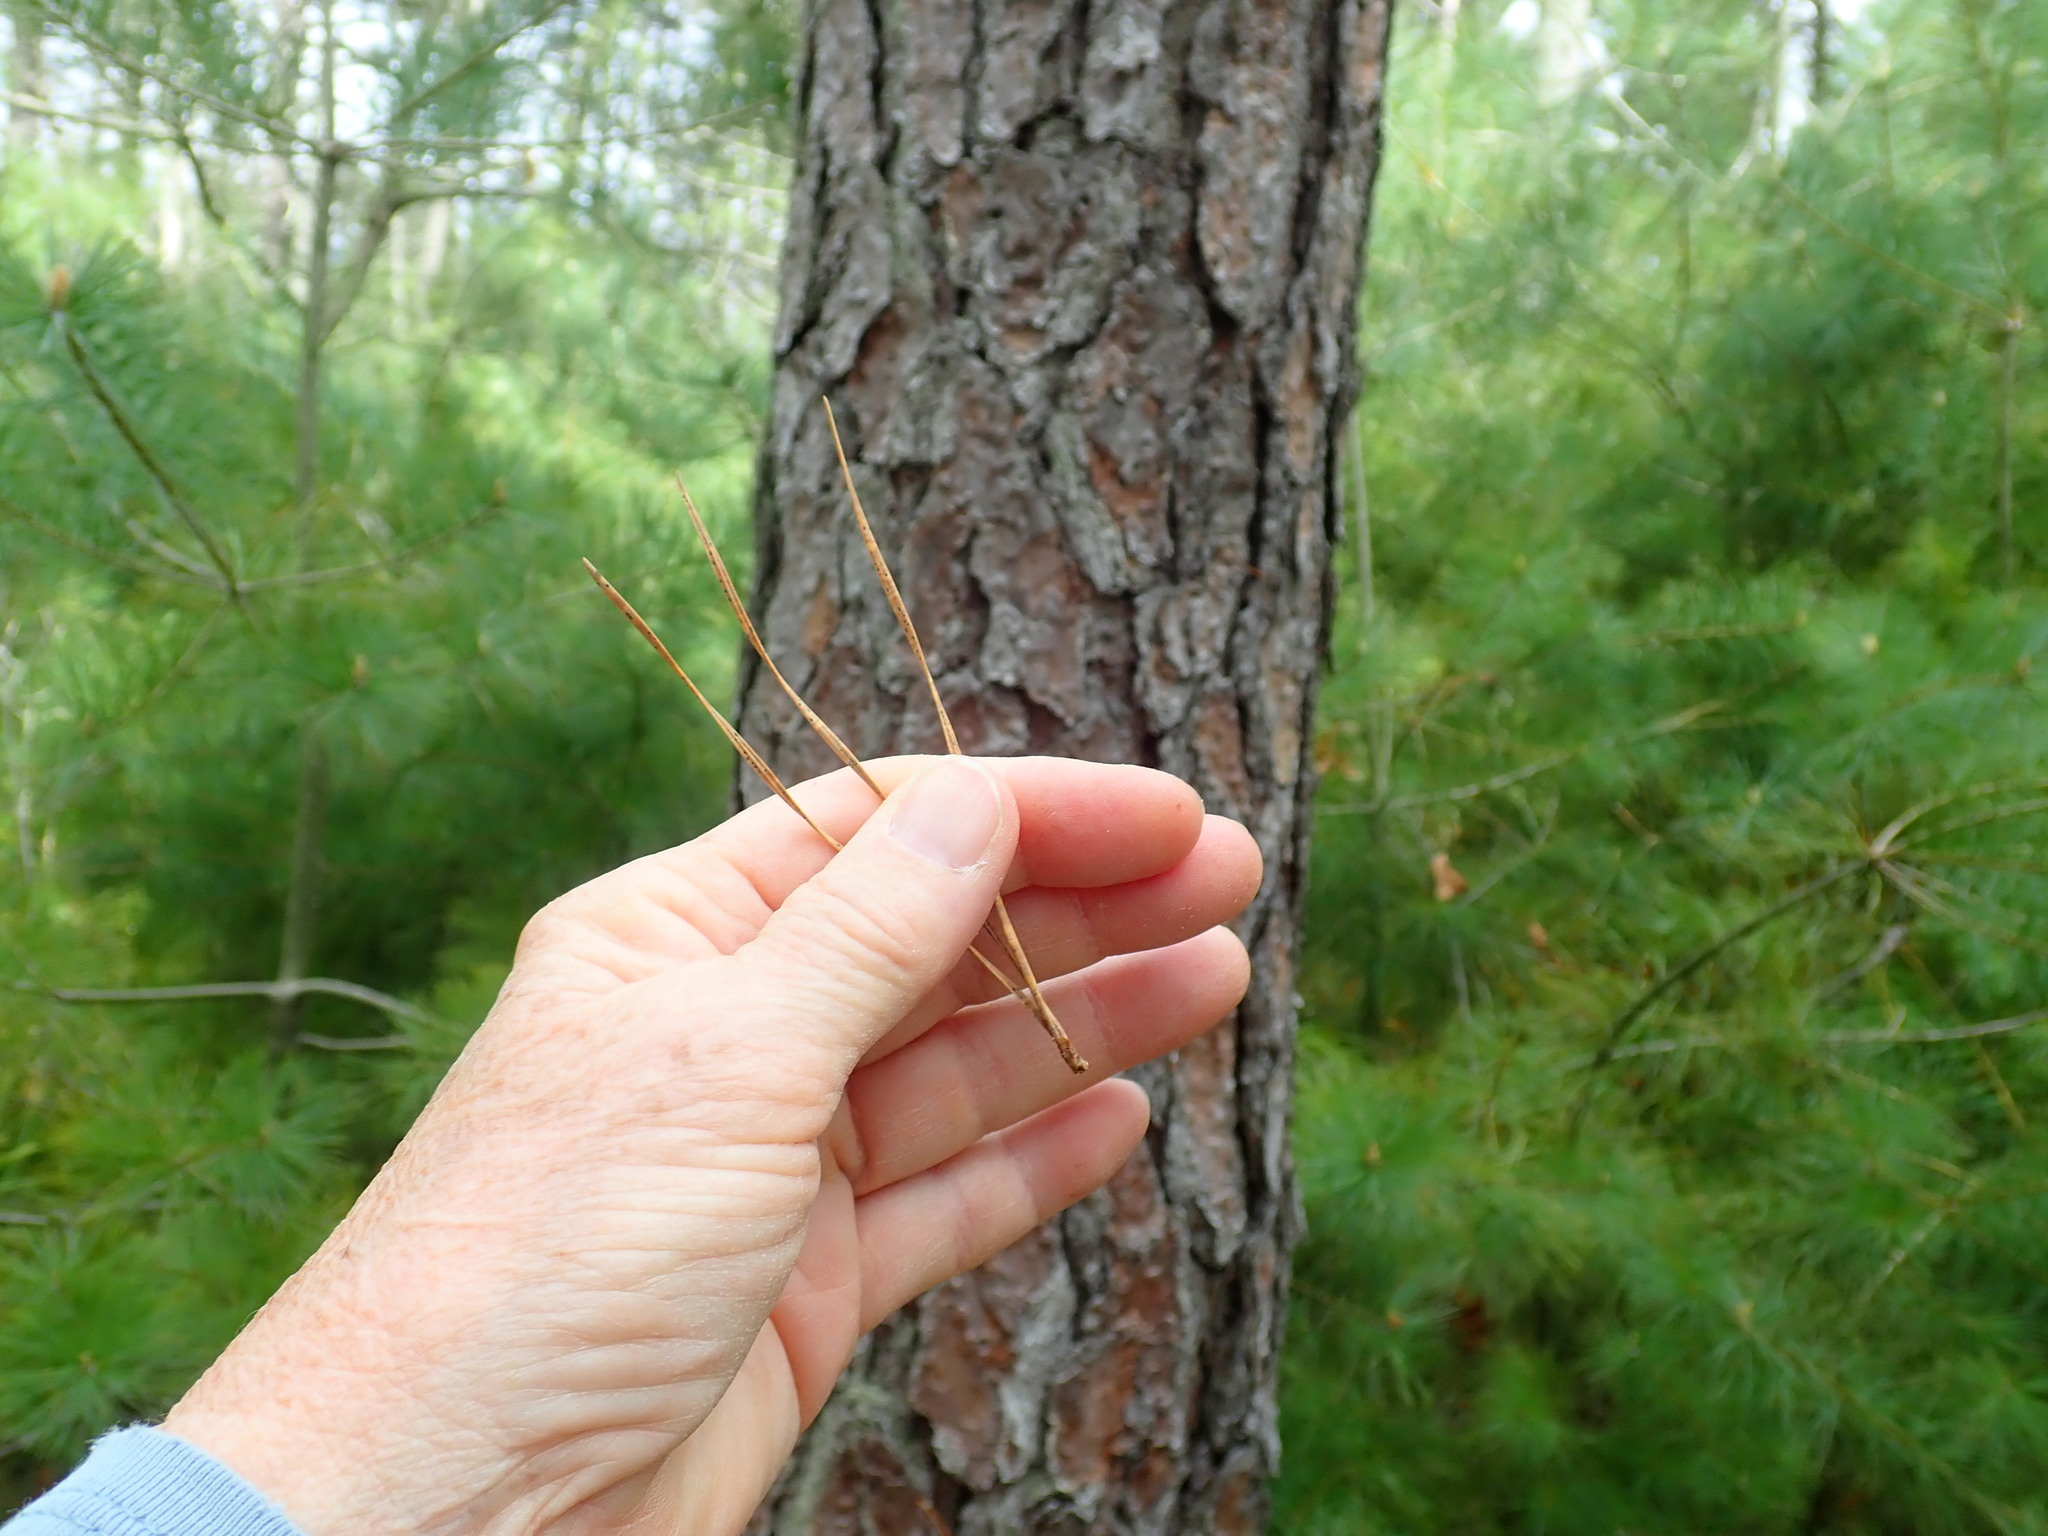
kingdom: Plantae
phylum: Tracheophyta
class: Pinopsida
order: Pinales
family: Pinaceae
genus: Pinus
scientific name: Pinus rigida
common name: Pitch pine
